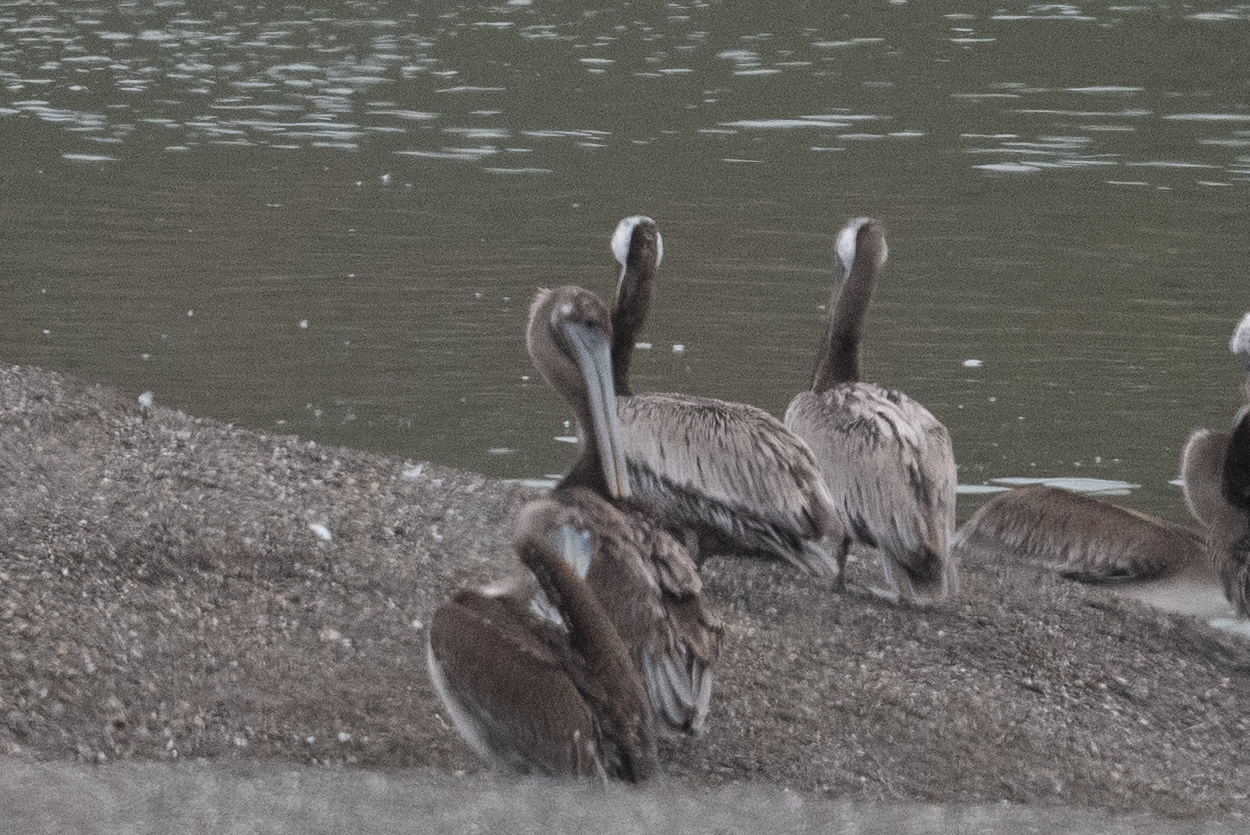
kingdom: Animalia
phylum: Chordata
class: Aves
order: Pelecaniformes
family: Pelecanidae
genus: Pelecanus
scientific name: Pelecanus occidentalis
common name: Brown pelican
